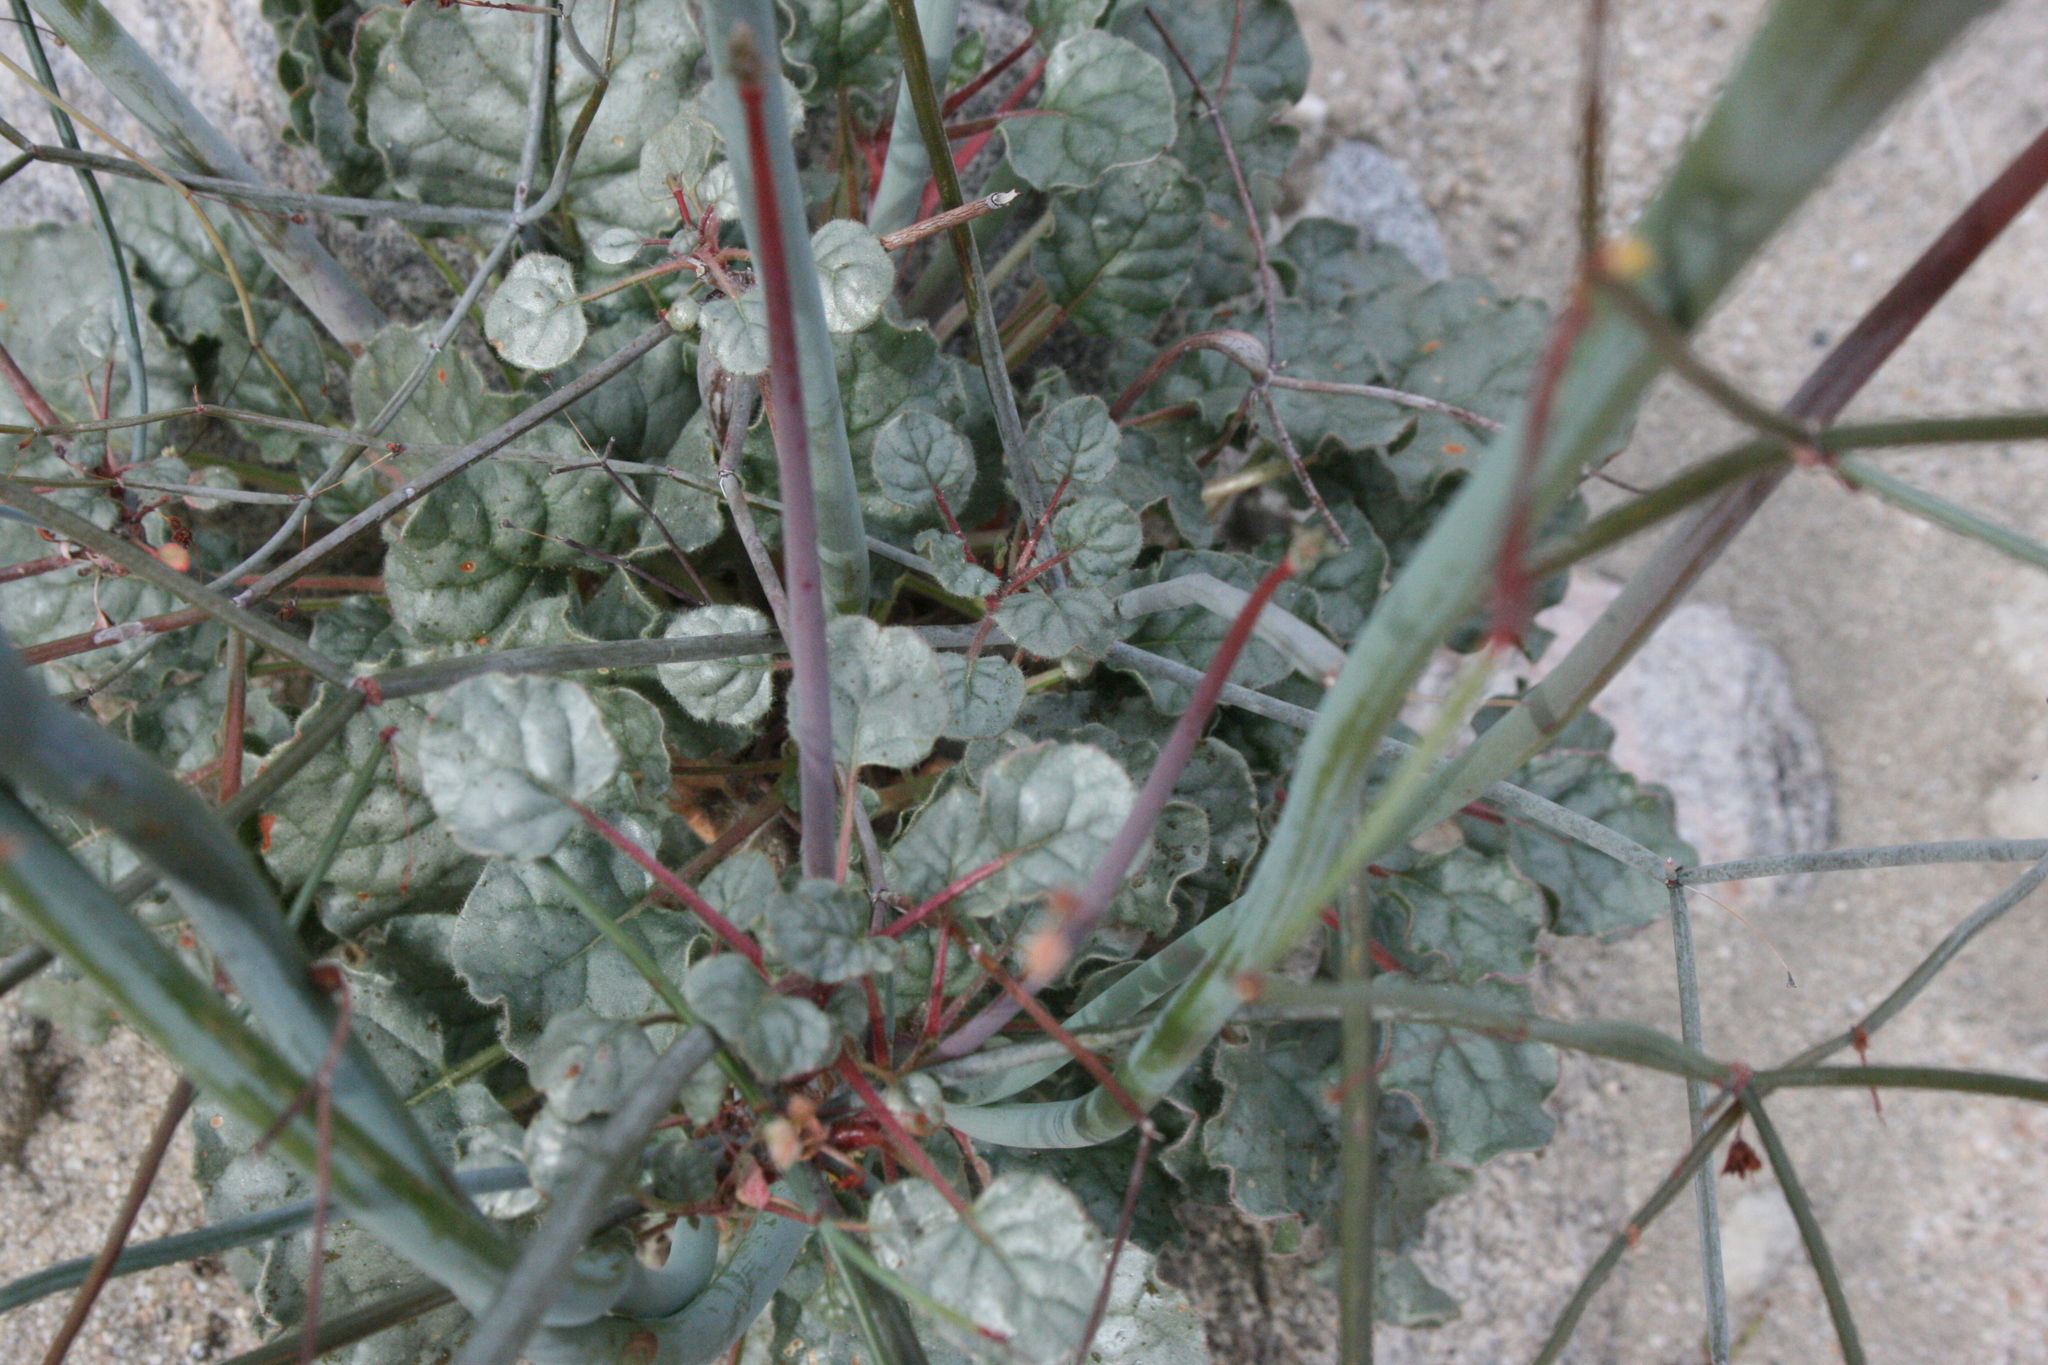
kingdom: Plantae
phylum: Tracheophyta
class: Magnoliopsida
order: Caryophyllales
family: Polygonaceae
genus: Eriogonum
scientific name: Eriogonum inflatum
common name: Desert trumpet
